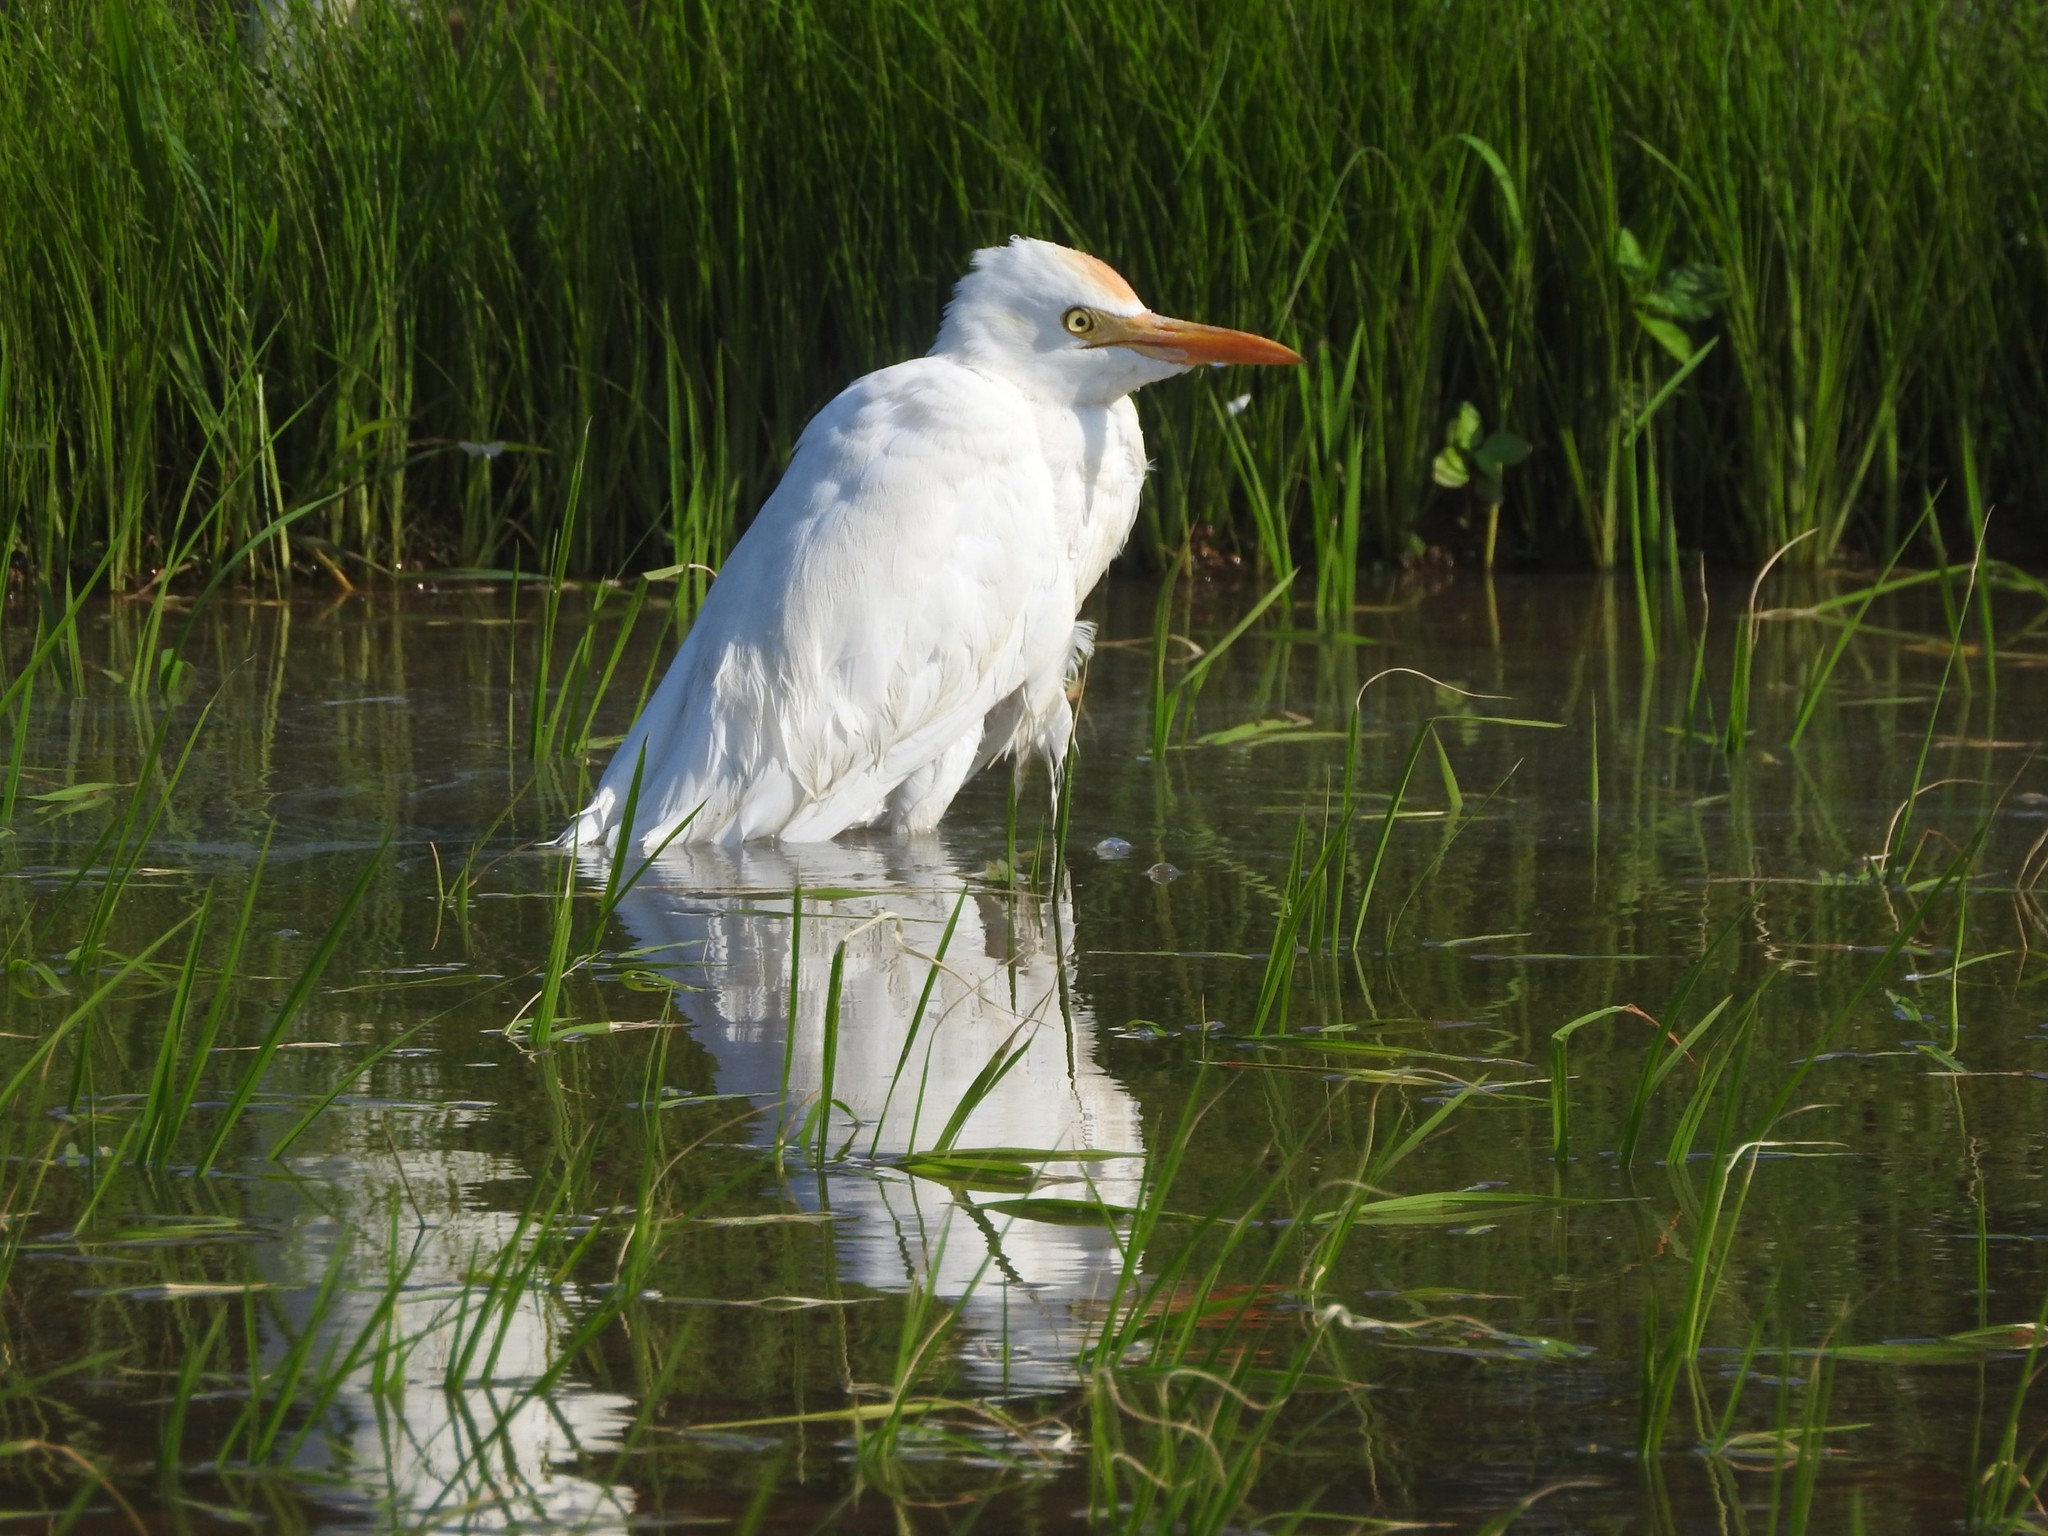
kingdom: Animalia
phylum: Chordata
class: Aves
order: Pelecaniformes
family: Ardeidae
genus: Bubulcus
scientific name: Bubulcus coromandus
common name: Eastern cattle egret
